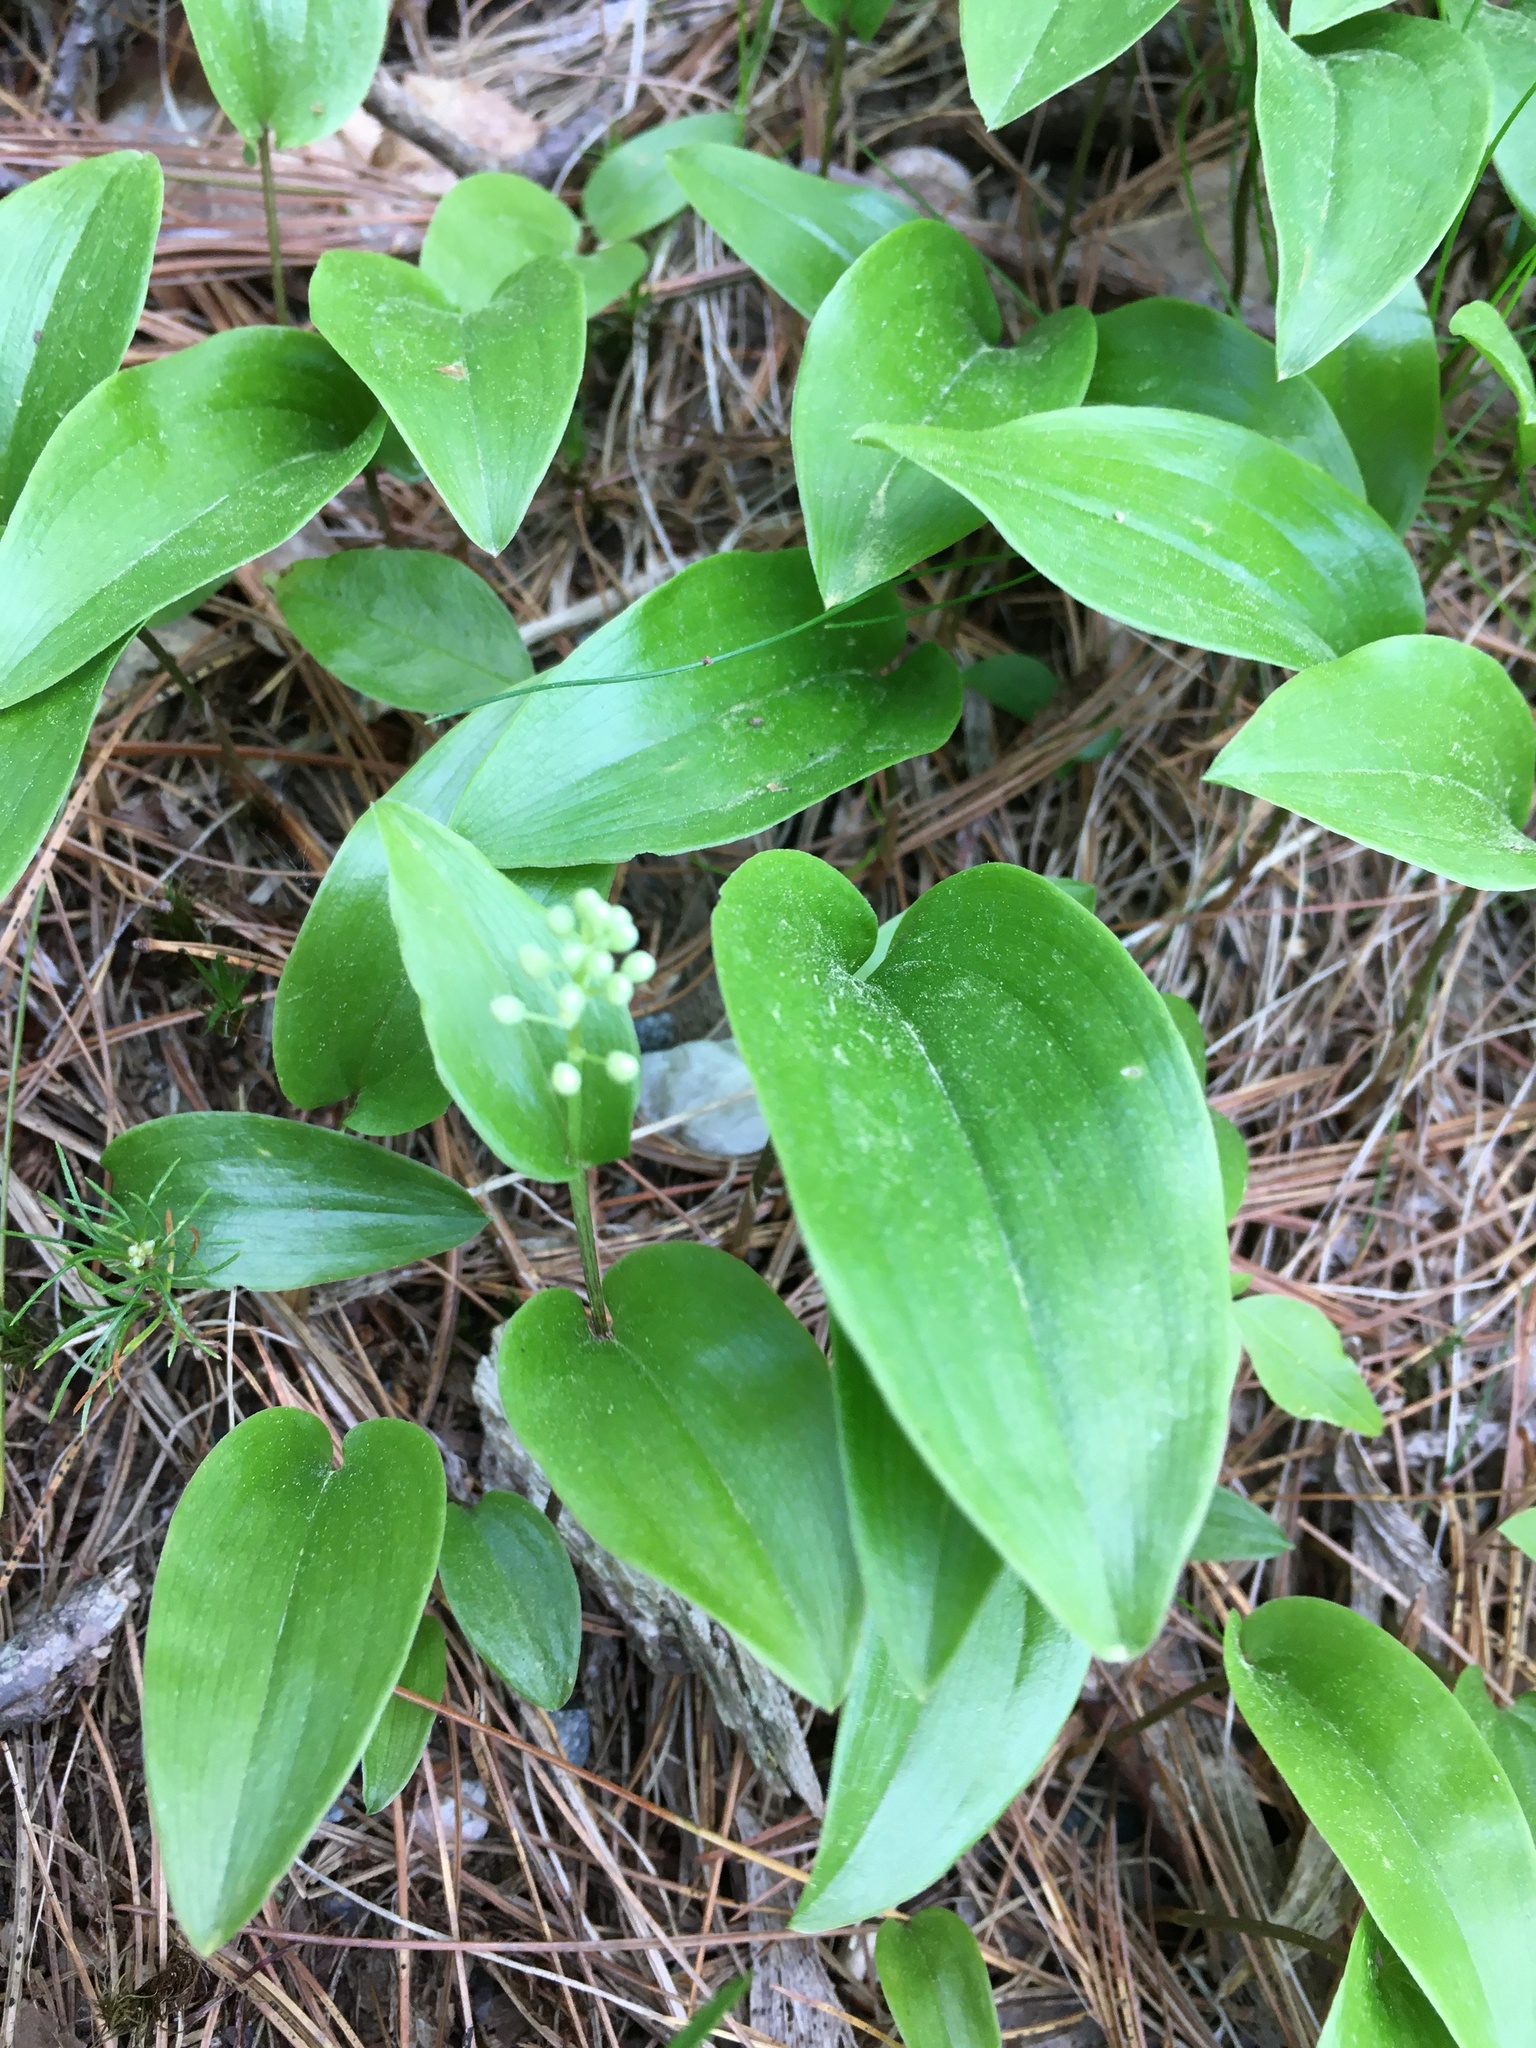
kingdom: Plantae
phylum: Tracheophyta
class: Liliopsida
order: Asparagales
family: Asparagaceae
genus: Maianthemum
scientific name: Maianthemum canadense
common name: False lily-of-the-valley
